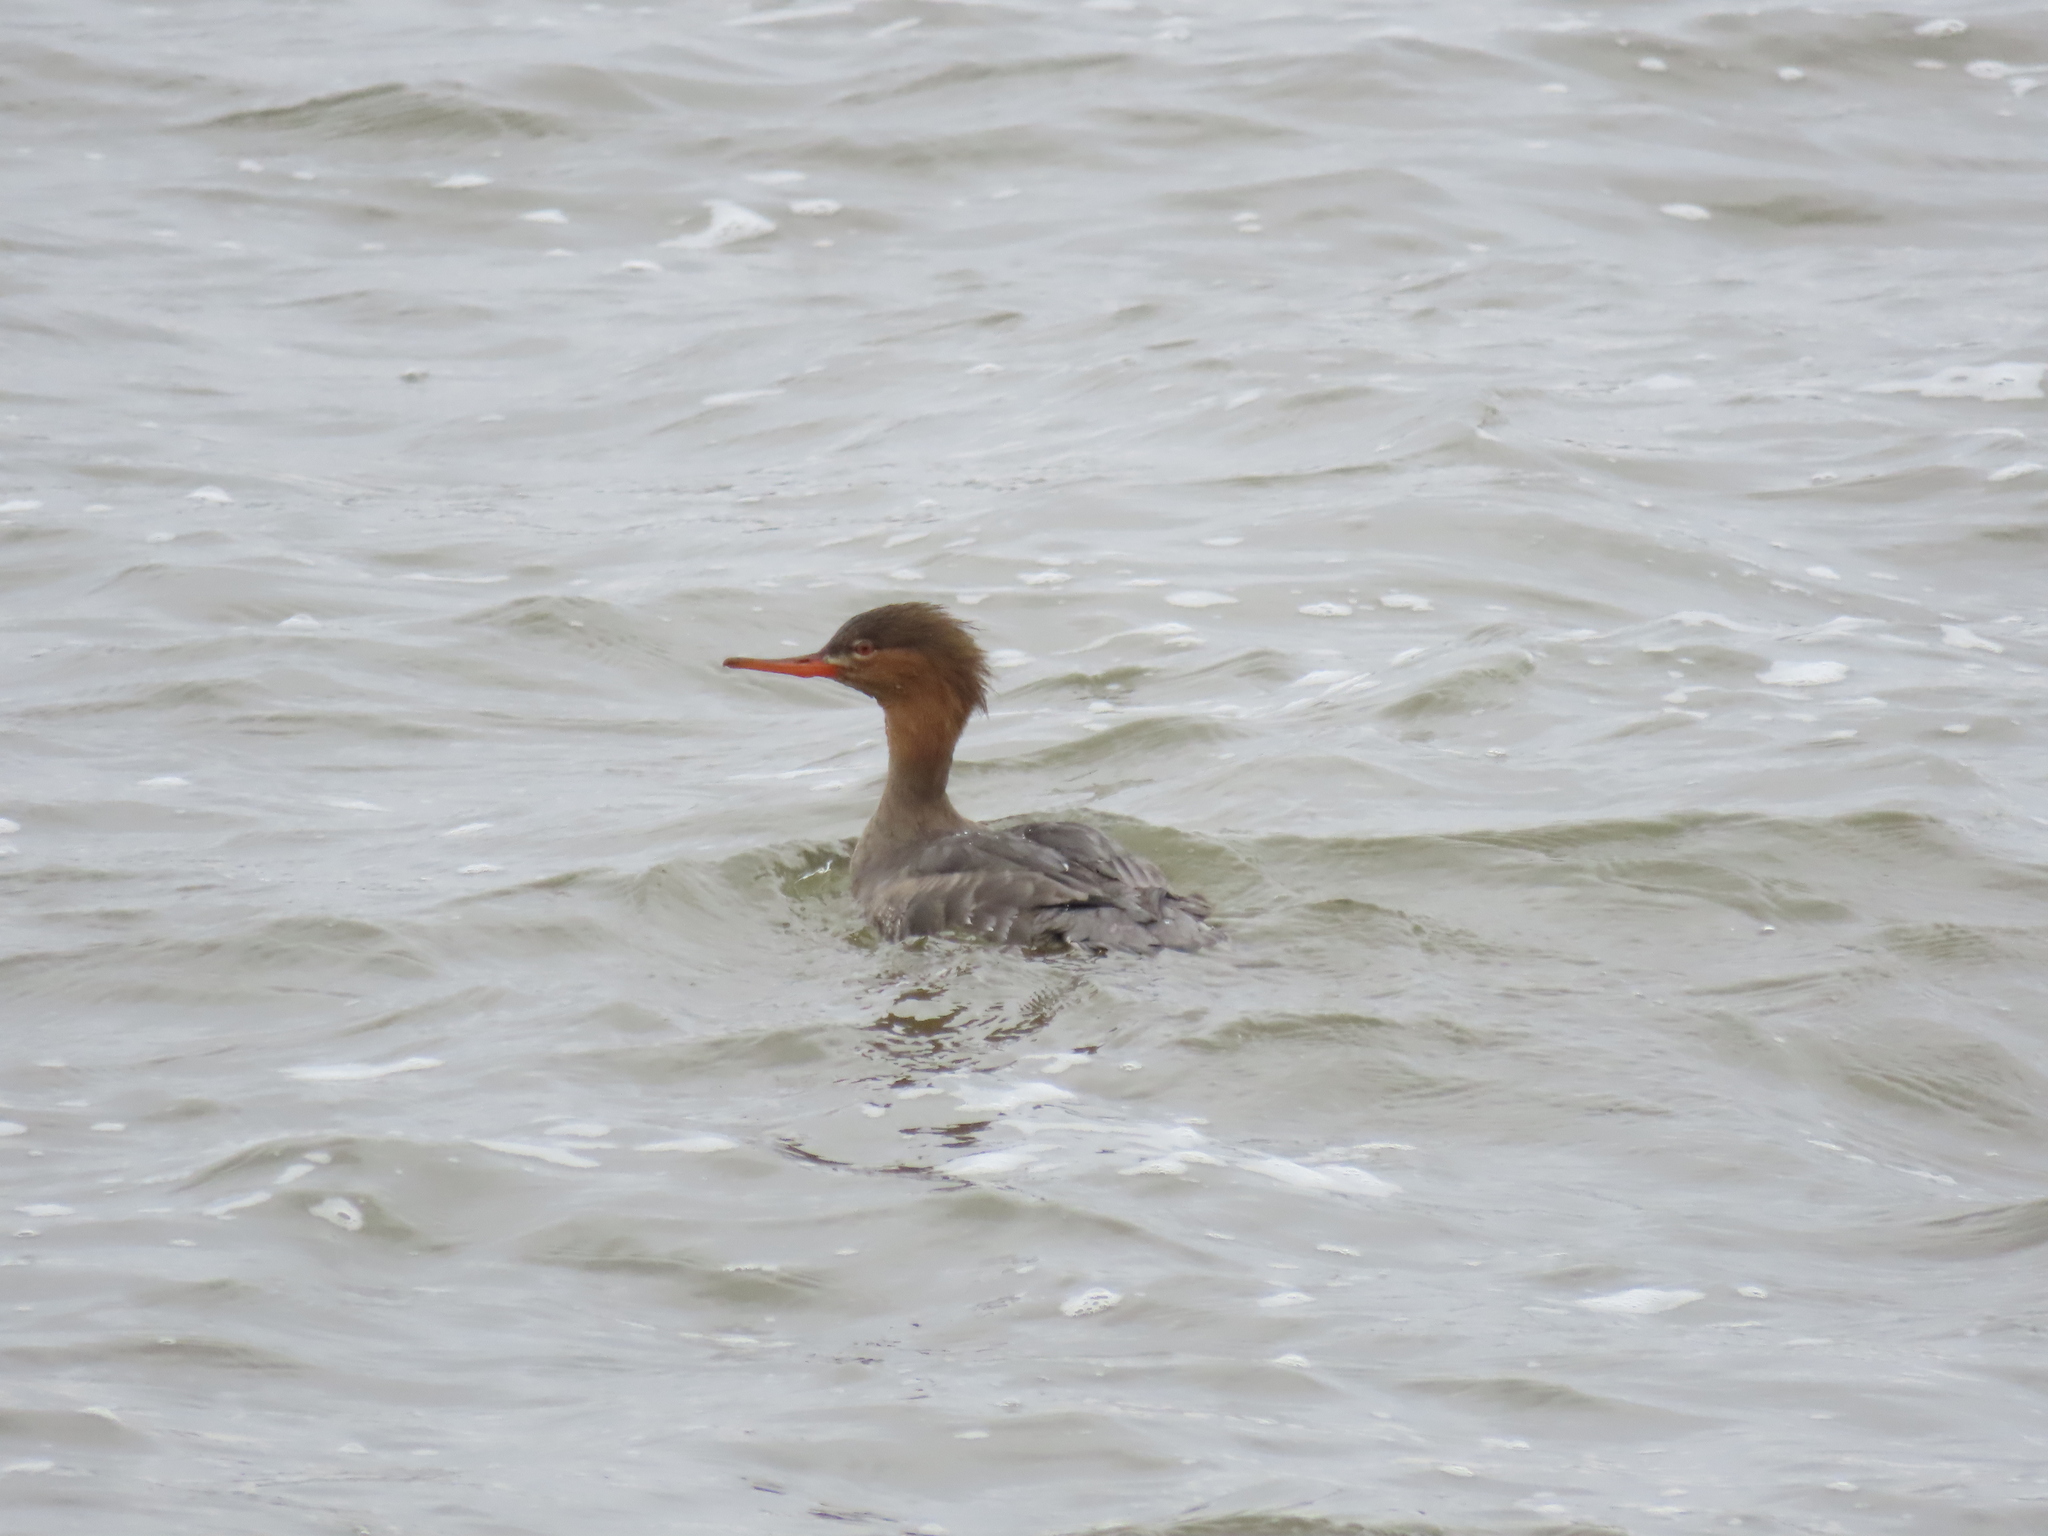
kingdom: Animalia
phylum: Chordata
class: Aves
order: Anseriformes
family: Anatidae
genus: Mergus
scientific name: Mergus serrator
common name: Red-breasted merganser
